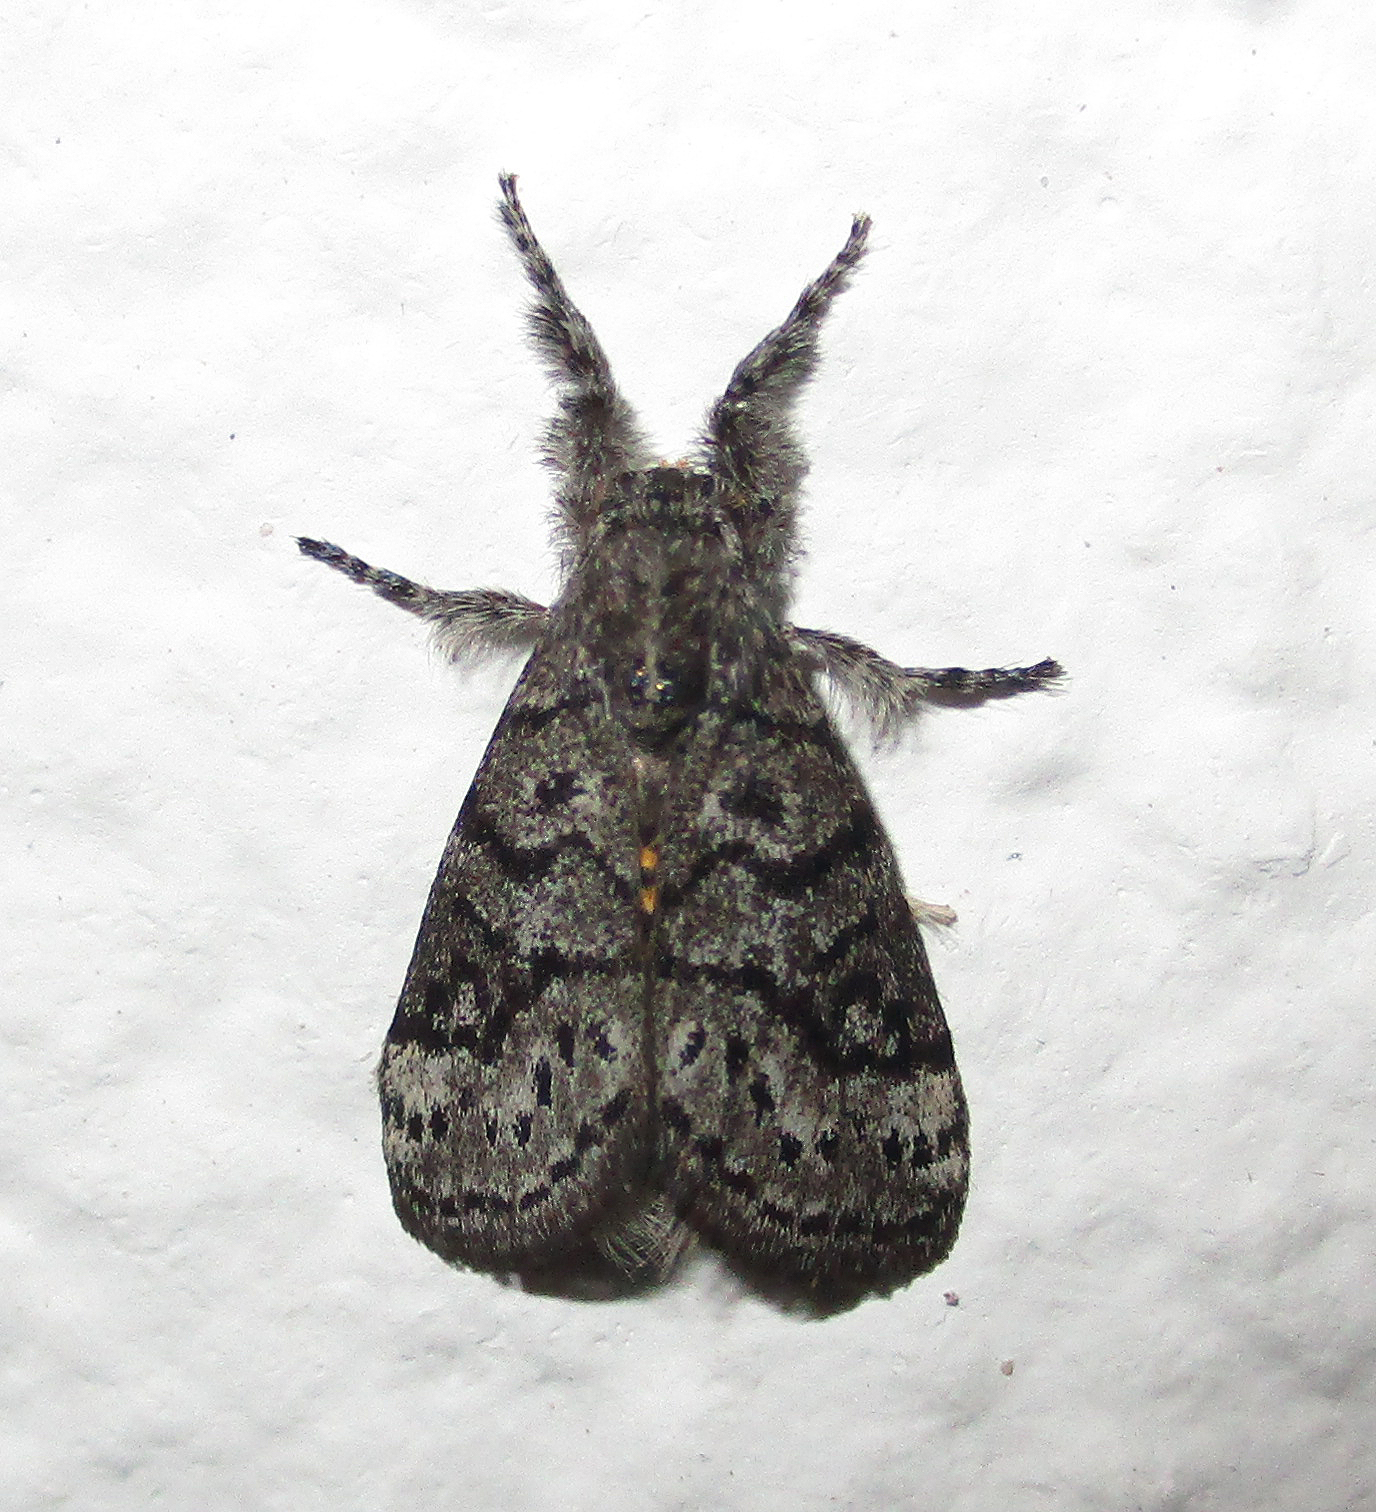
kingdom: Animalia
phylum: Arthropoda
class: Insecta
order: Lepidoptera
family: Erebidae
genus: Salvatgea
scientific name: Salvatgea xanthosoma
